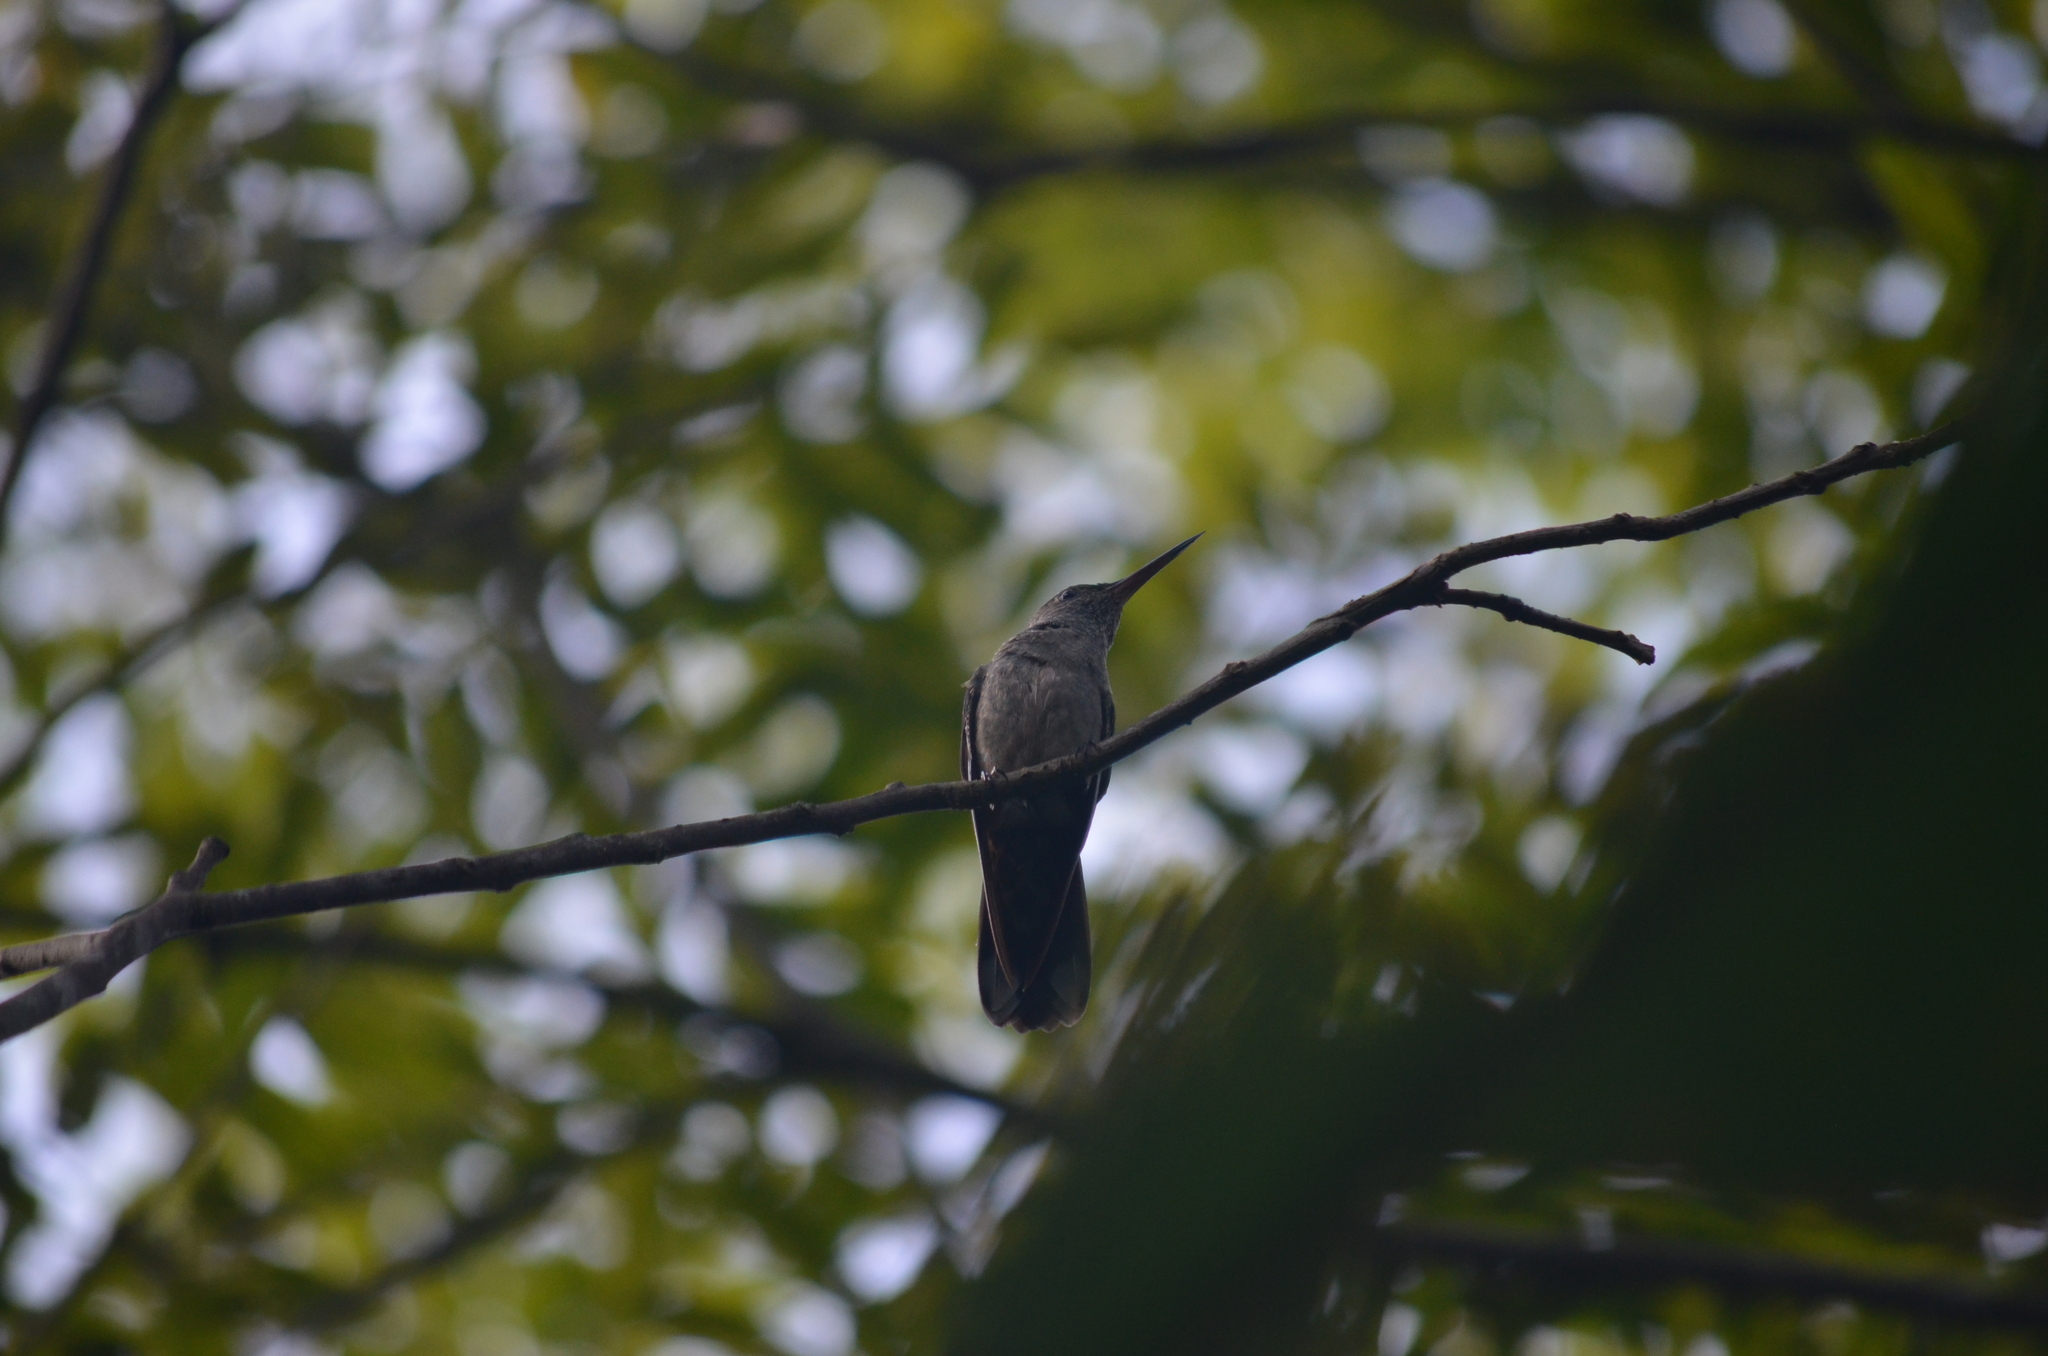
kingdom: Animalia
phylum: Chordata
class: Aves
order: Apodiformes
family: Trochilidae
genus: Phaeochroa
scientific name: Phaeochroa cuvierii
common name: Scaly-breasted hummingbird
